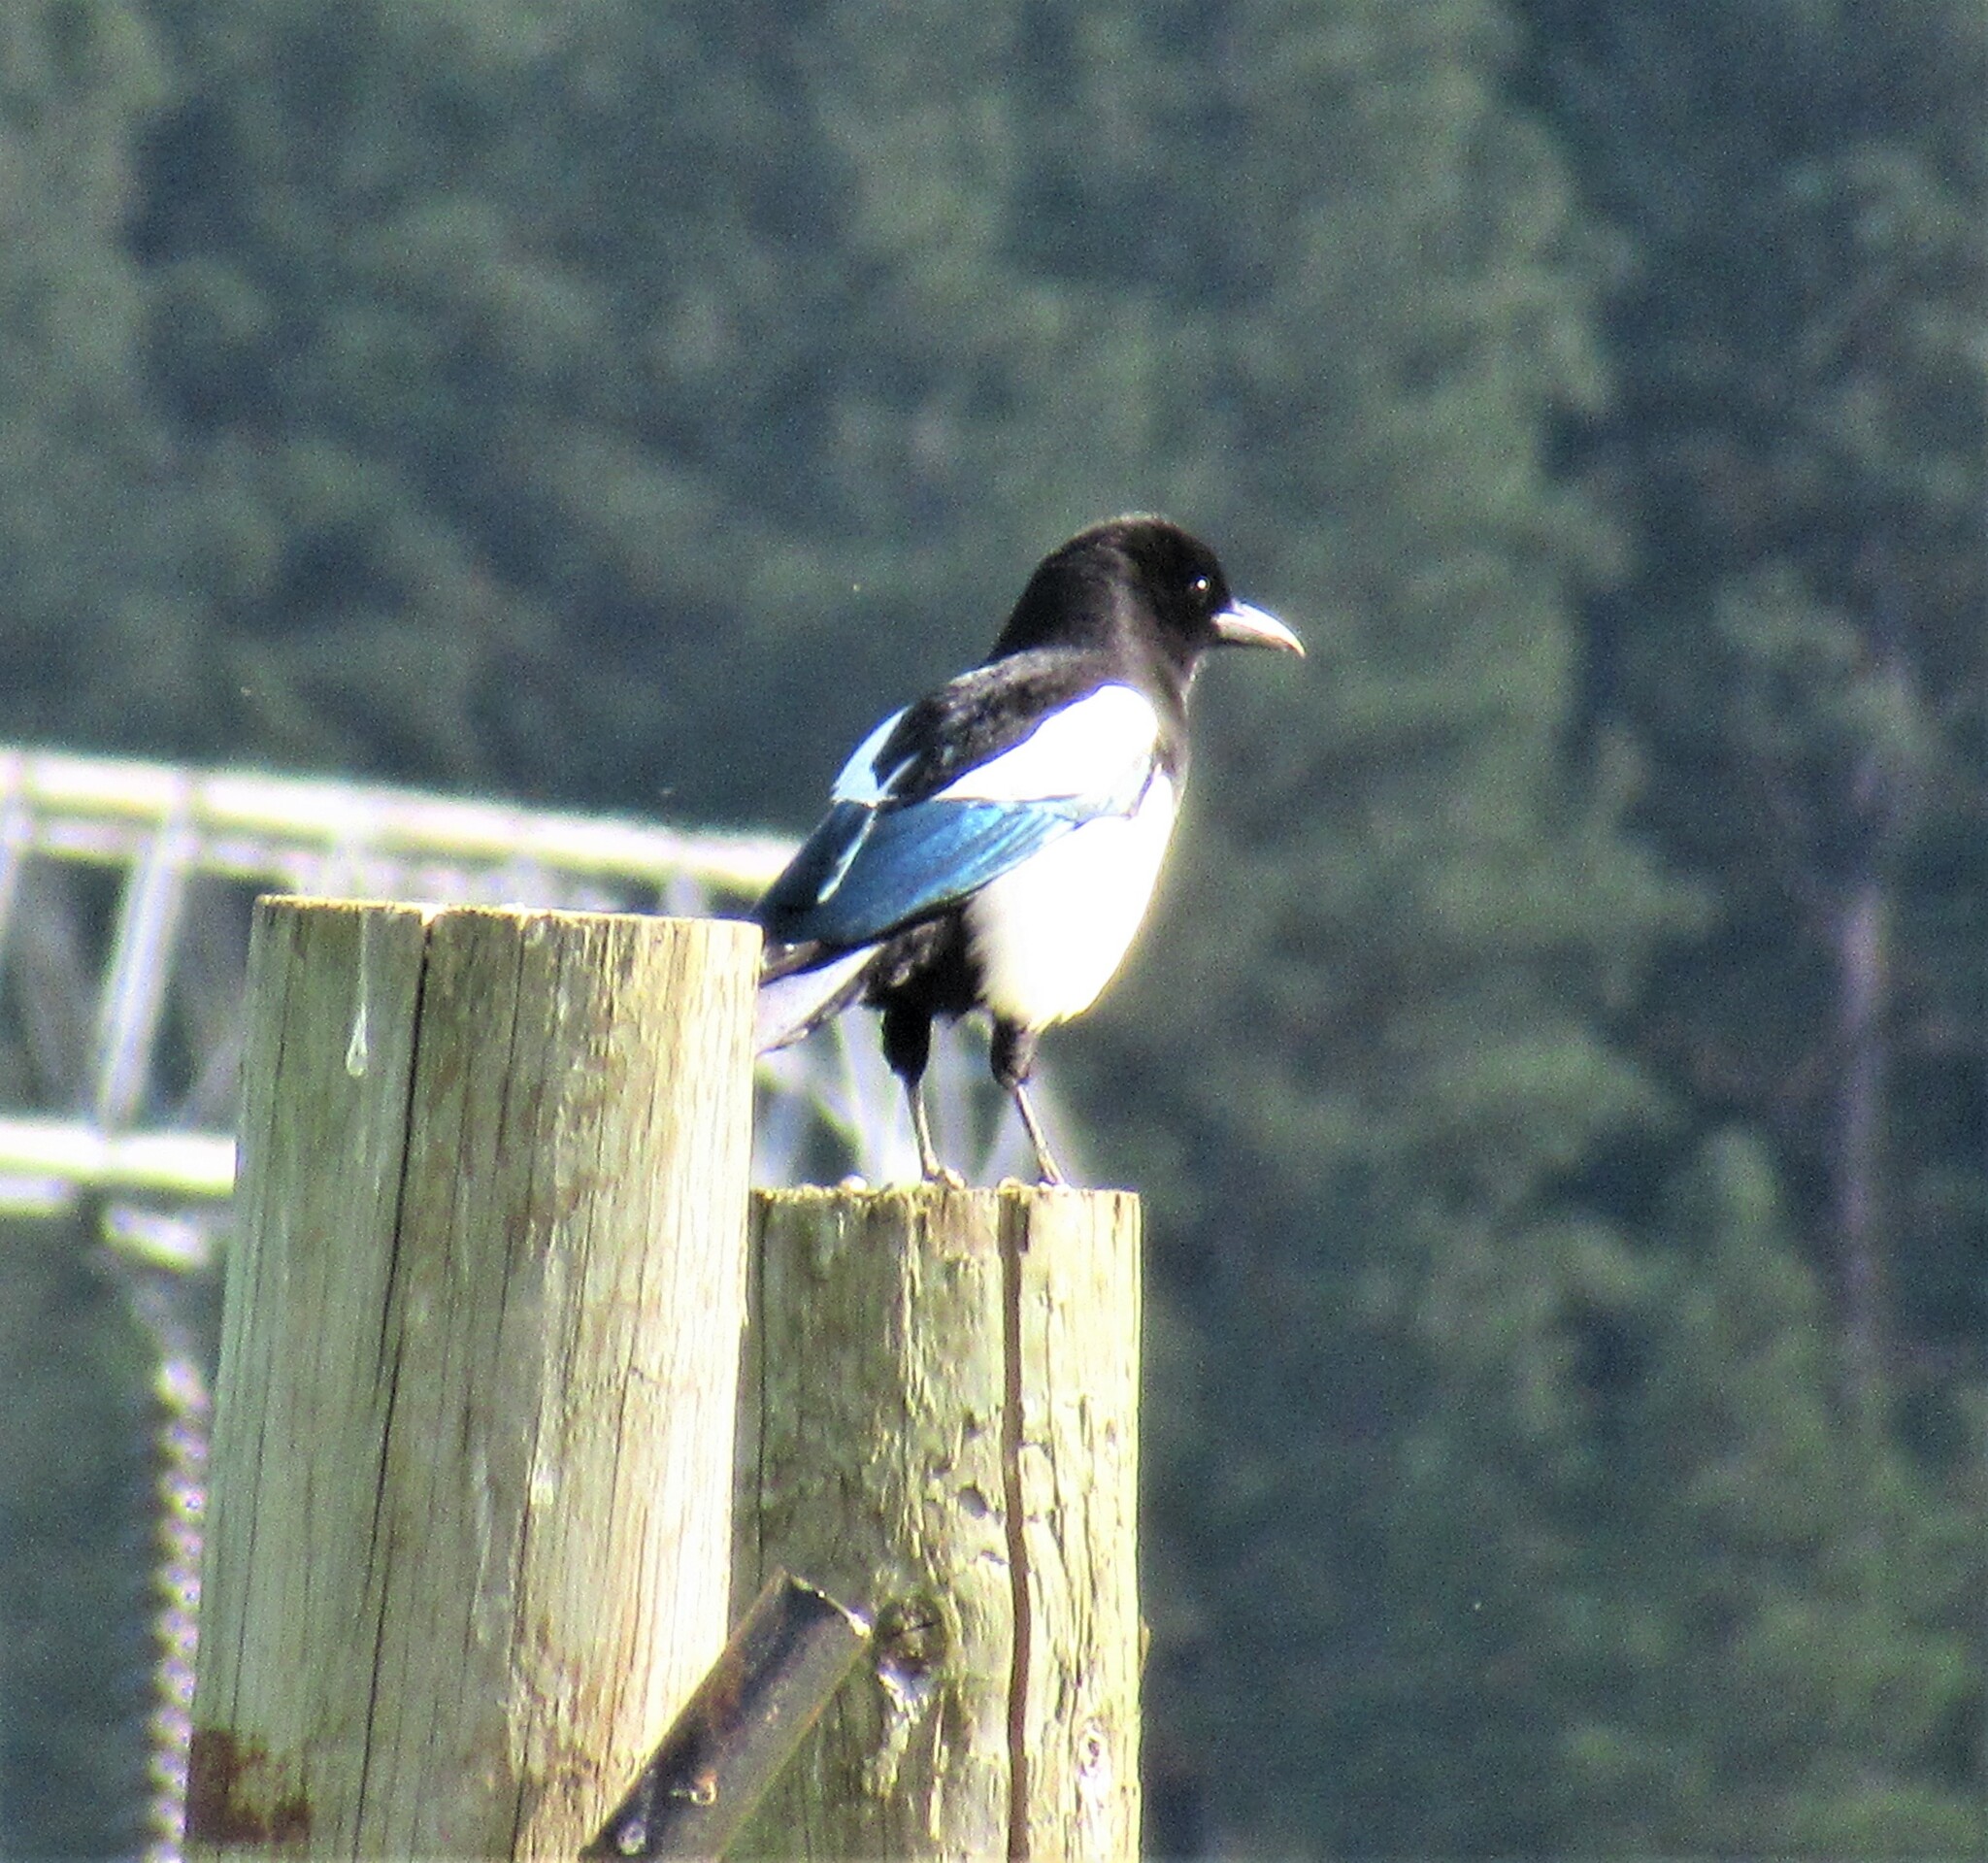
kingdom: Animalia
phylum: Chordata
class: Aves
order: Passeriformes
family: Corvidae
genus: Pica
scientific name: Pica hudsonia
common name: Black-billed magpie
